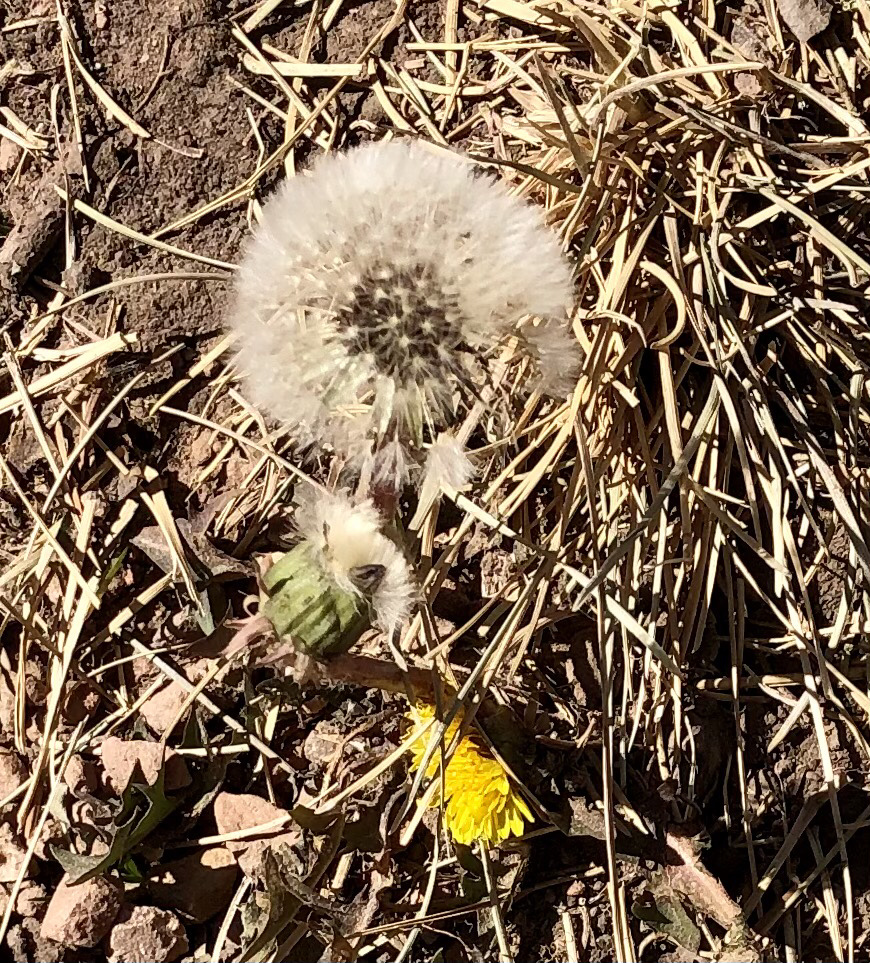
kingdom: Plantae
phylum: Tracheophyta
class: Magnoliopsida
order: Asterales
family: Asteraceae
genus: Taraxacum
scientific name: Taraxacum officinale
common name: Common dandelion
